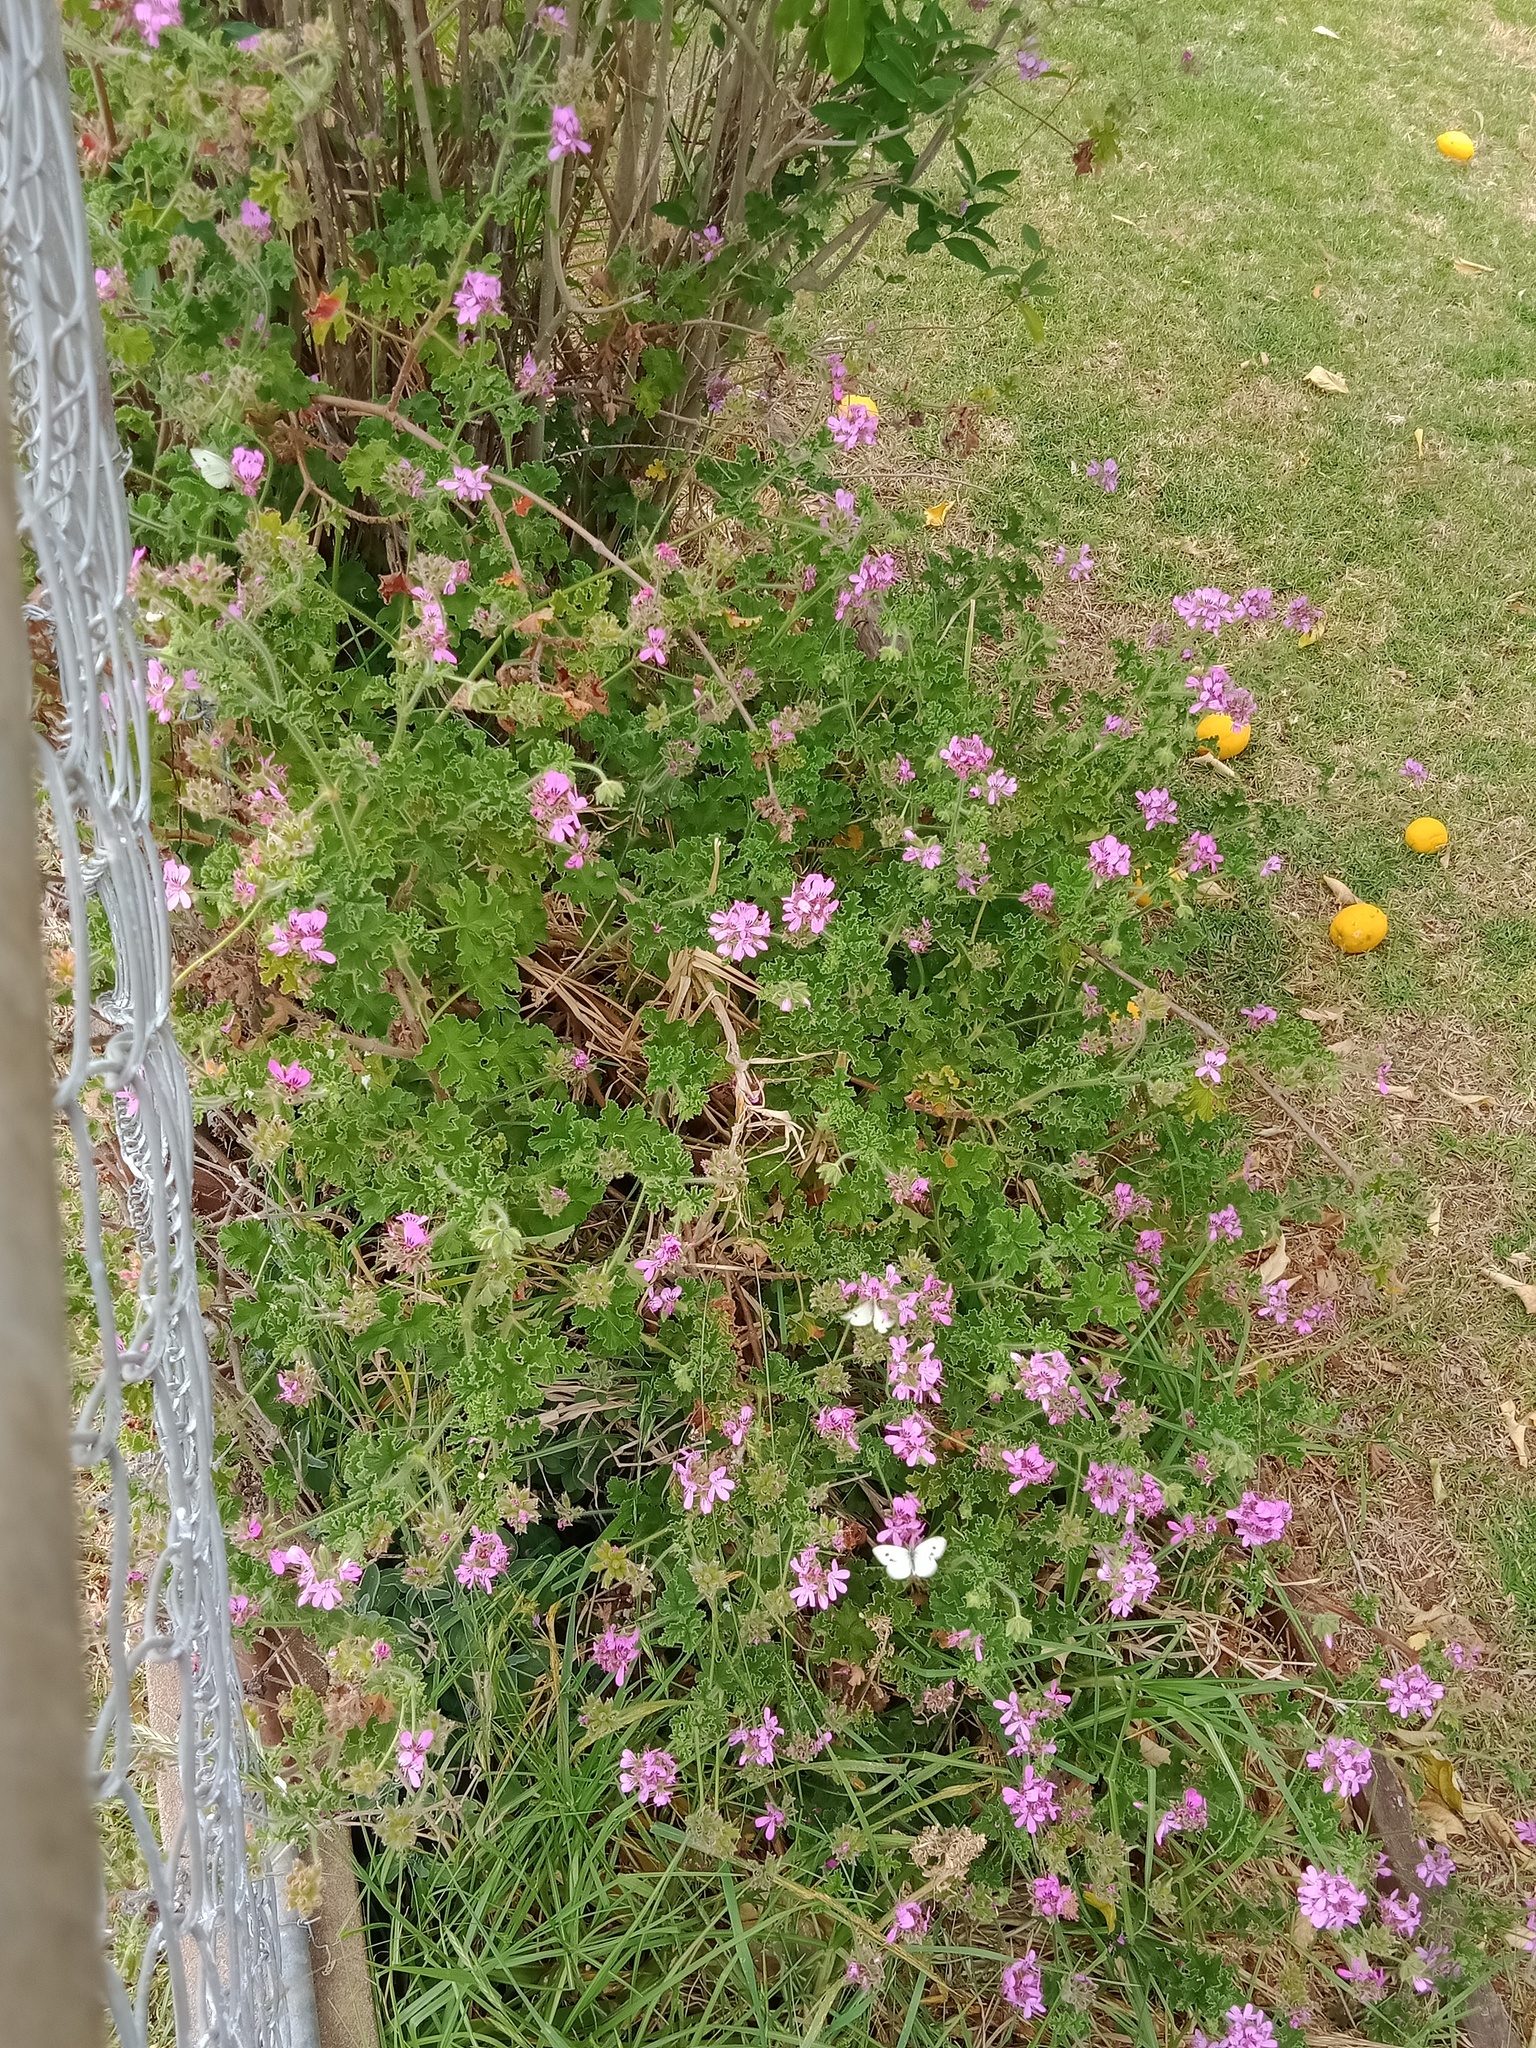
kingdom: Animalia
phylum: Arthropoda
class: Insecta
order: Lepidoptera
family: Pieridae
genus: Pieris
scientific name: Pieris rapae
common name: Small white
